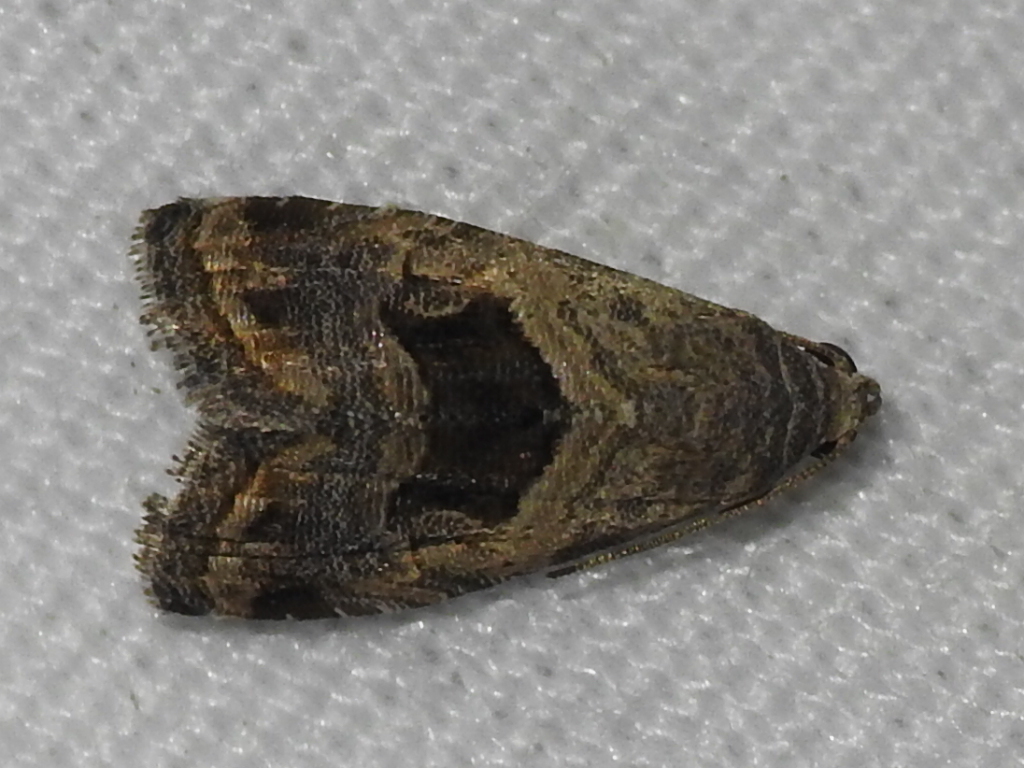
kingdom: Animalia
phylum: Arthropoda
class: Insecta
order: Lepidoptera
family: Noctuidae
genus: Tripudia
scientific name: Tripudia quadrifera
